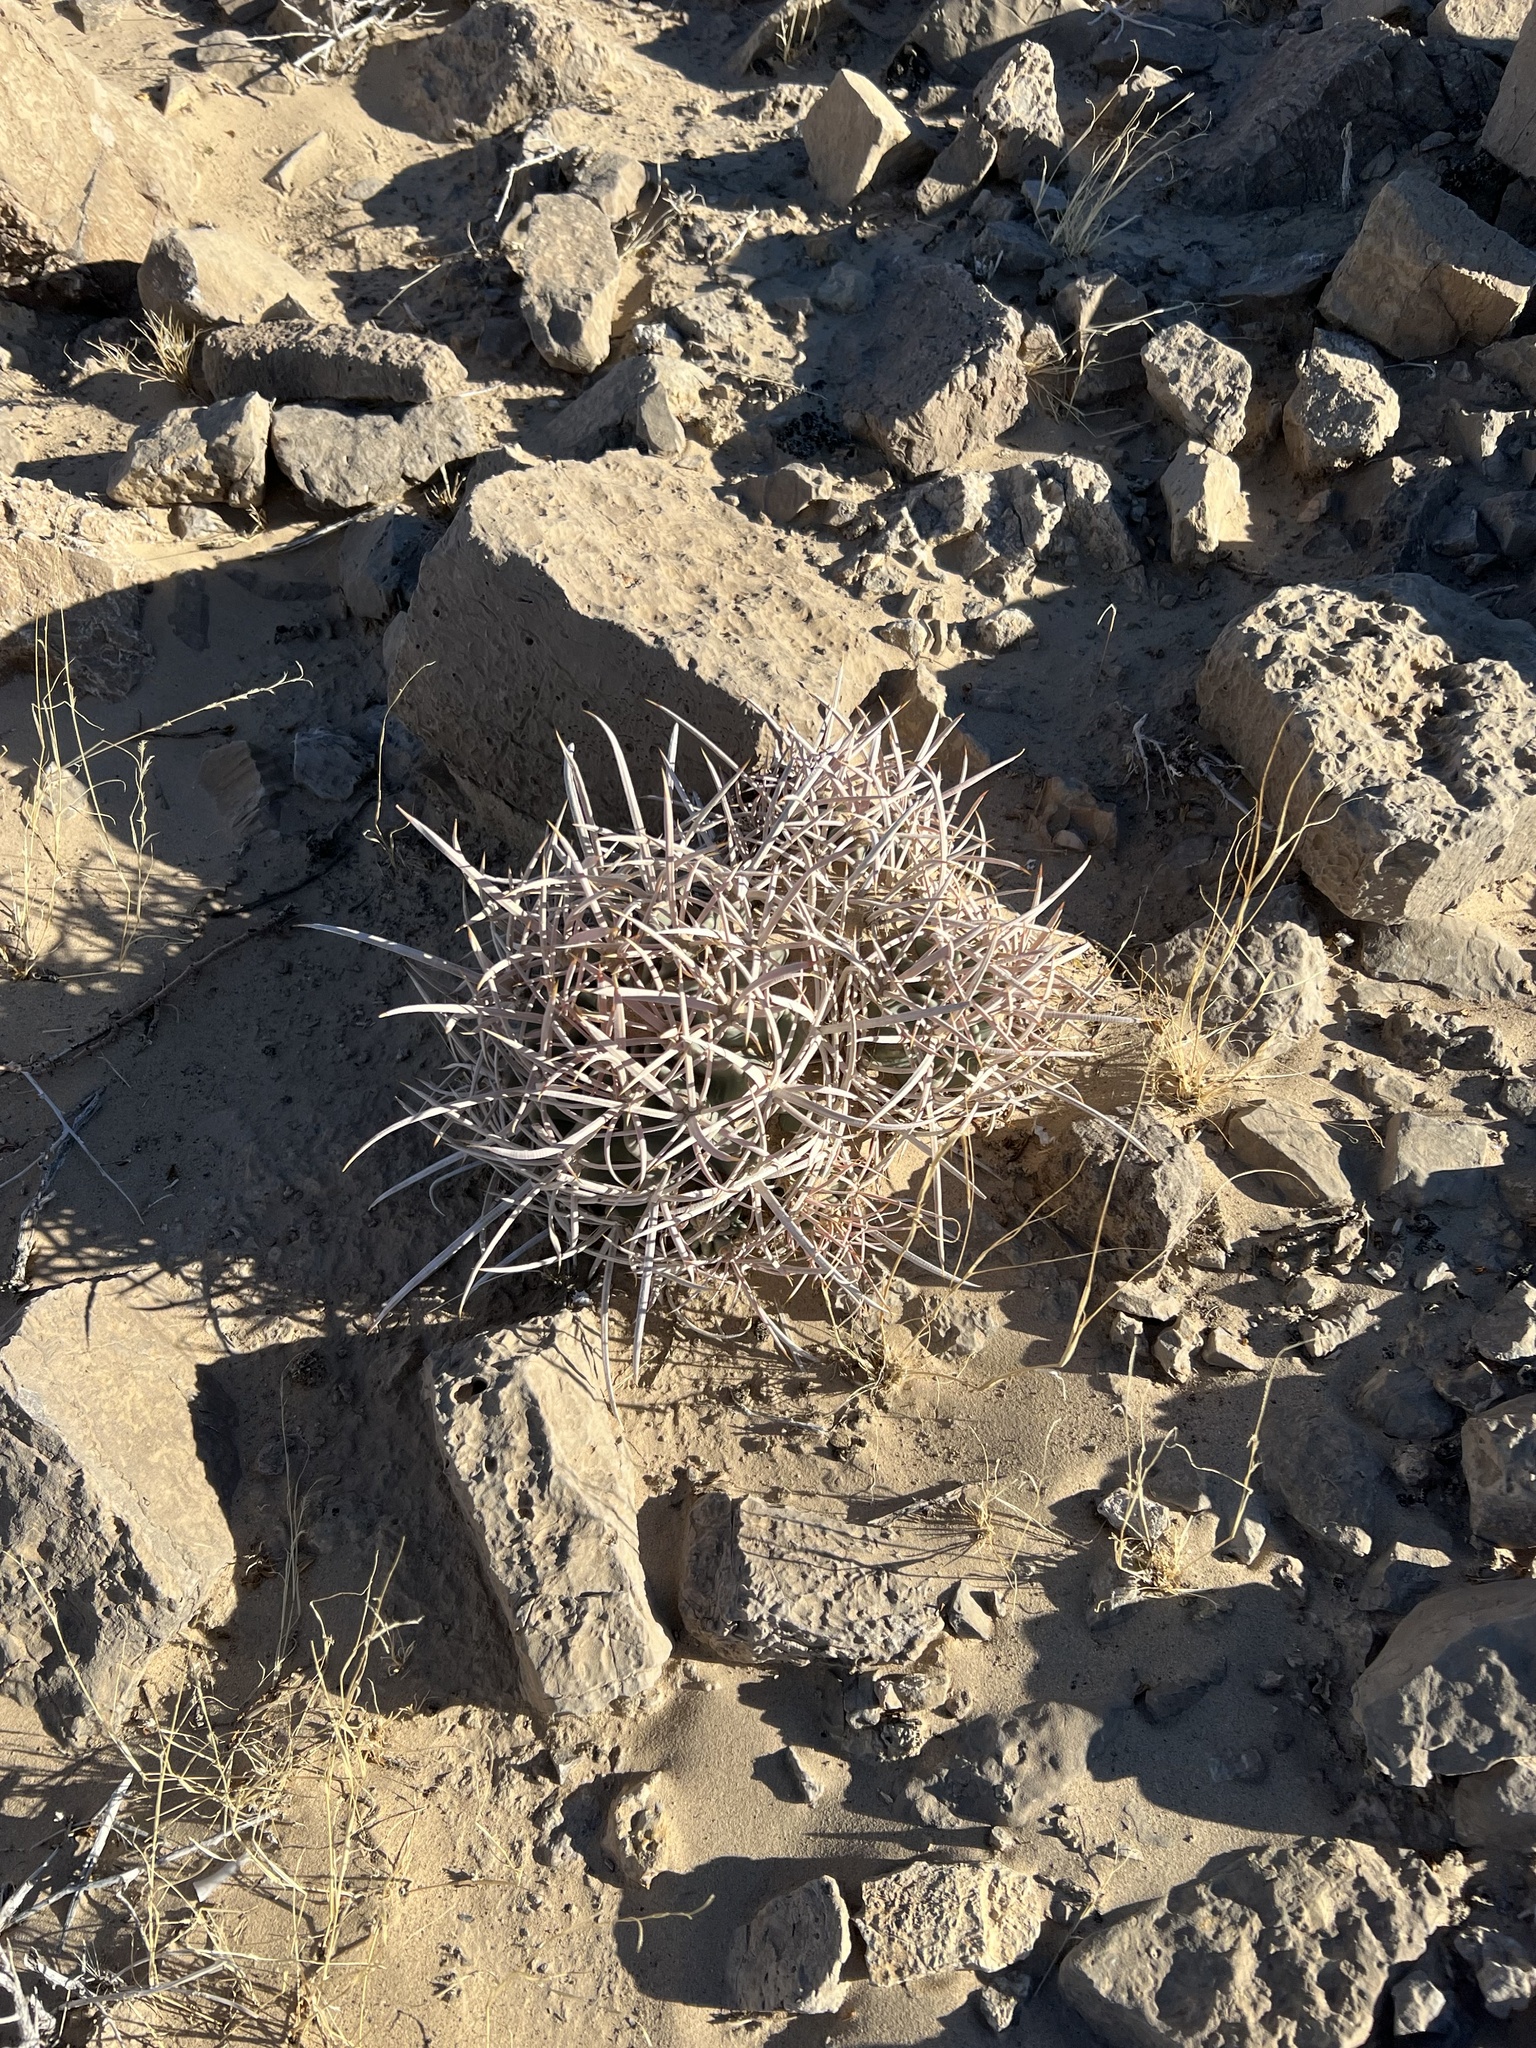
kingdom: Plantae
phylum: Tracheophyta
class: Magnoliopsida
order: Caryophyllales
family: Cactaceae
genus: Echinocactus
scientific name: Echinocactus polycephalus
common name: Cottontop cactus
